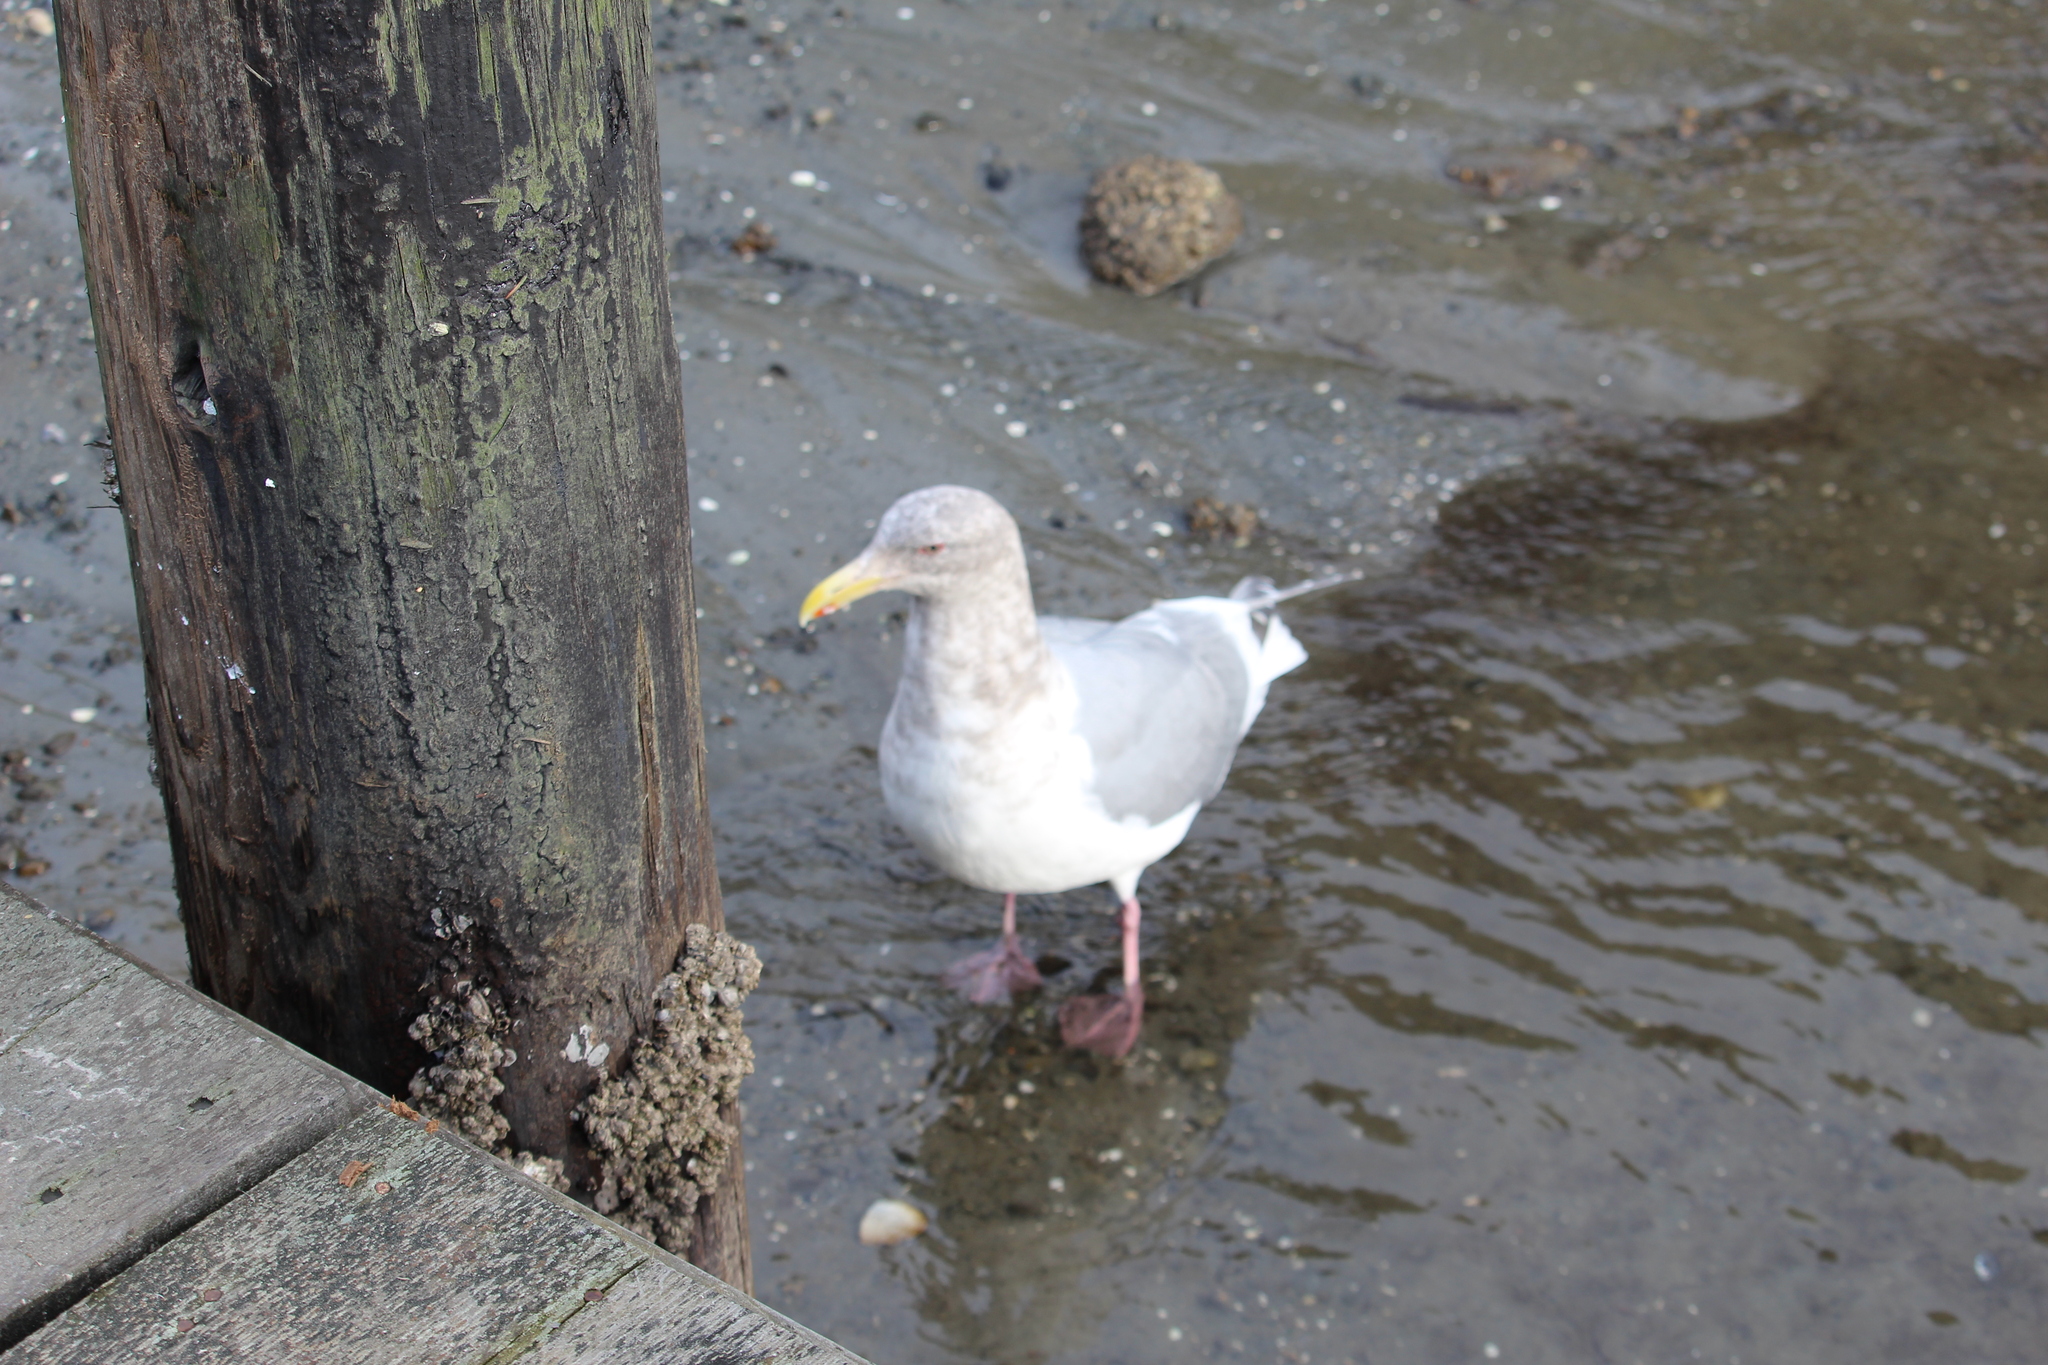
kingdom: Animalia
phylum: Chordata
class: Aves
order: Charadriiformes
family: Laridae
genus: Larus
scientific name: Larus glaucescens
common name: Glaucous-winged gull
